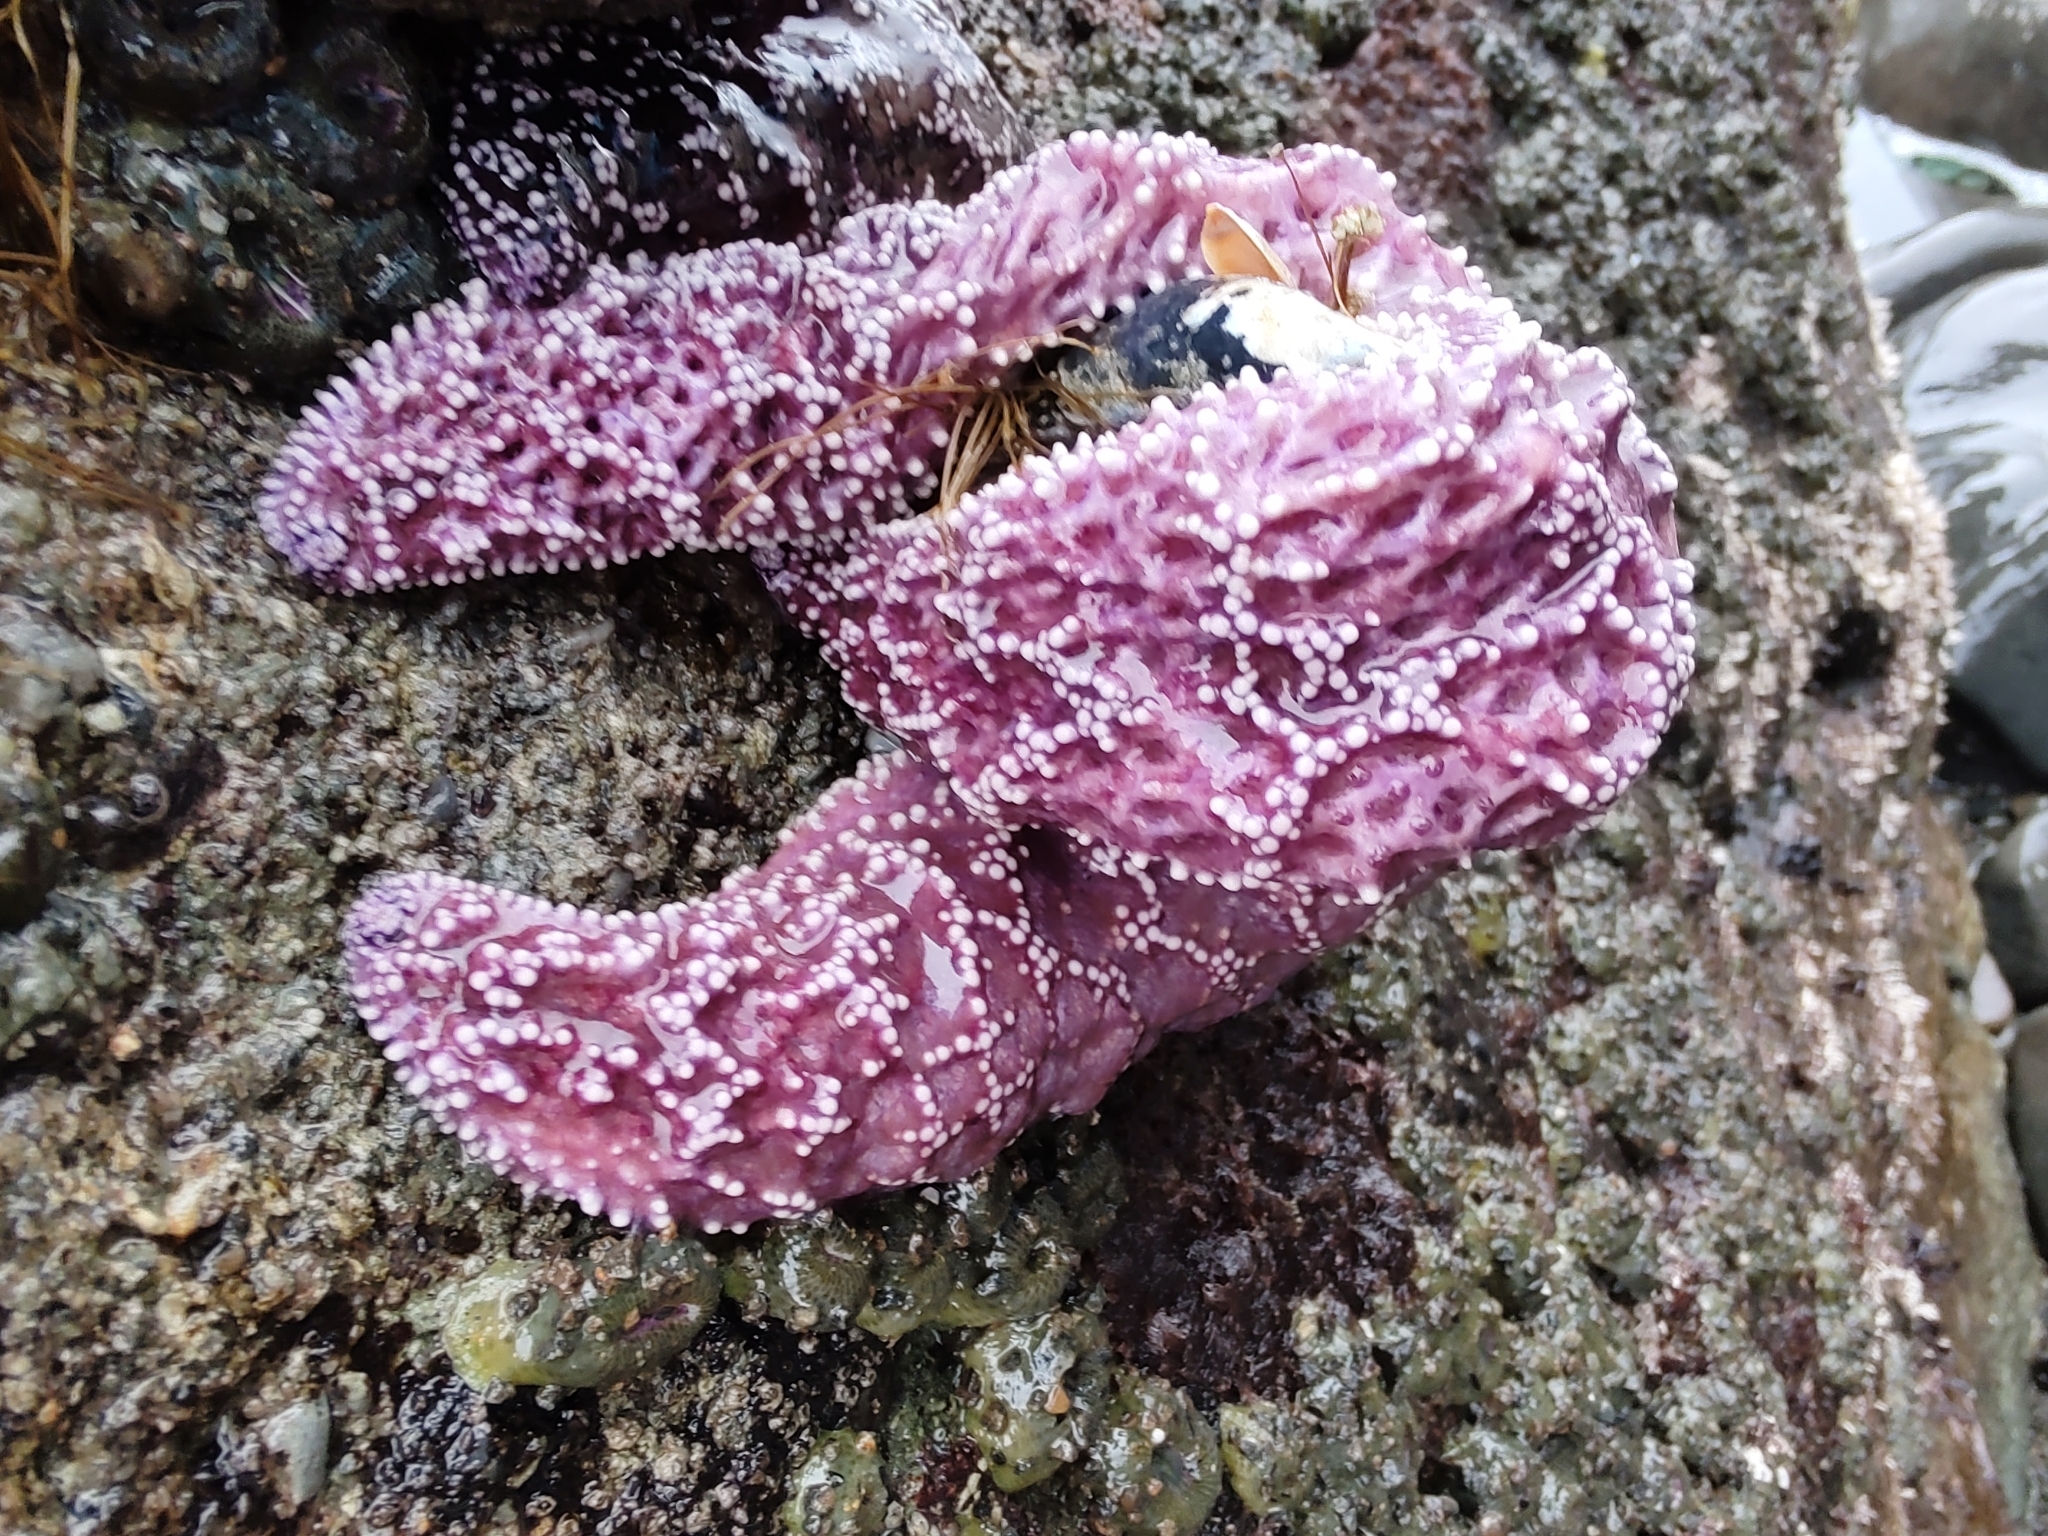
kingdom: Animalia
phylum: Echinodermata
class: Asteroidea
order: Forcipulatida
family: Asteriidae
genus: Pisaster
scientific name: Pisaster ochraceus
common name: Ochre stars
